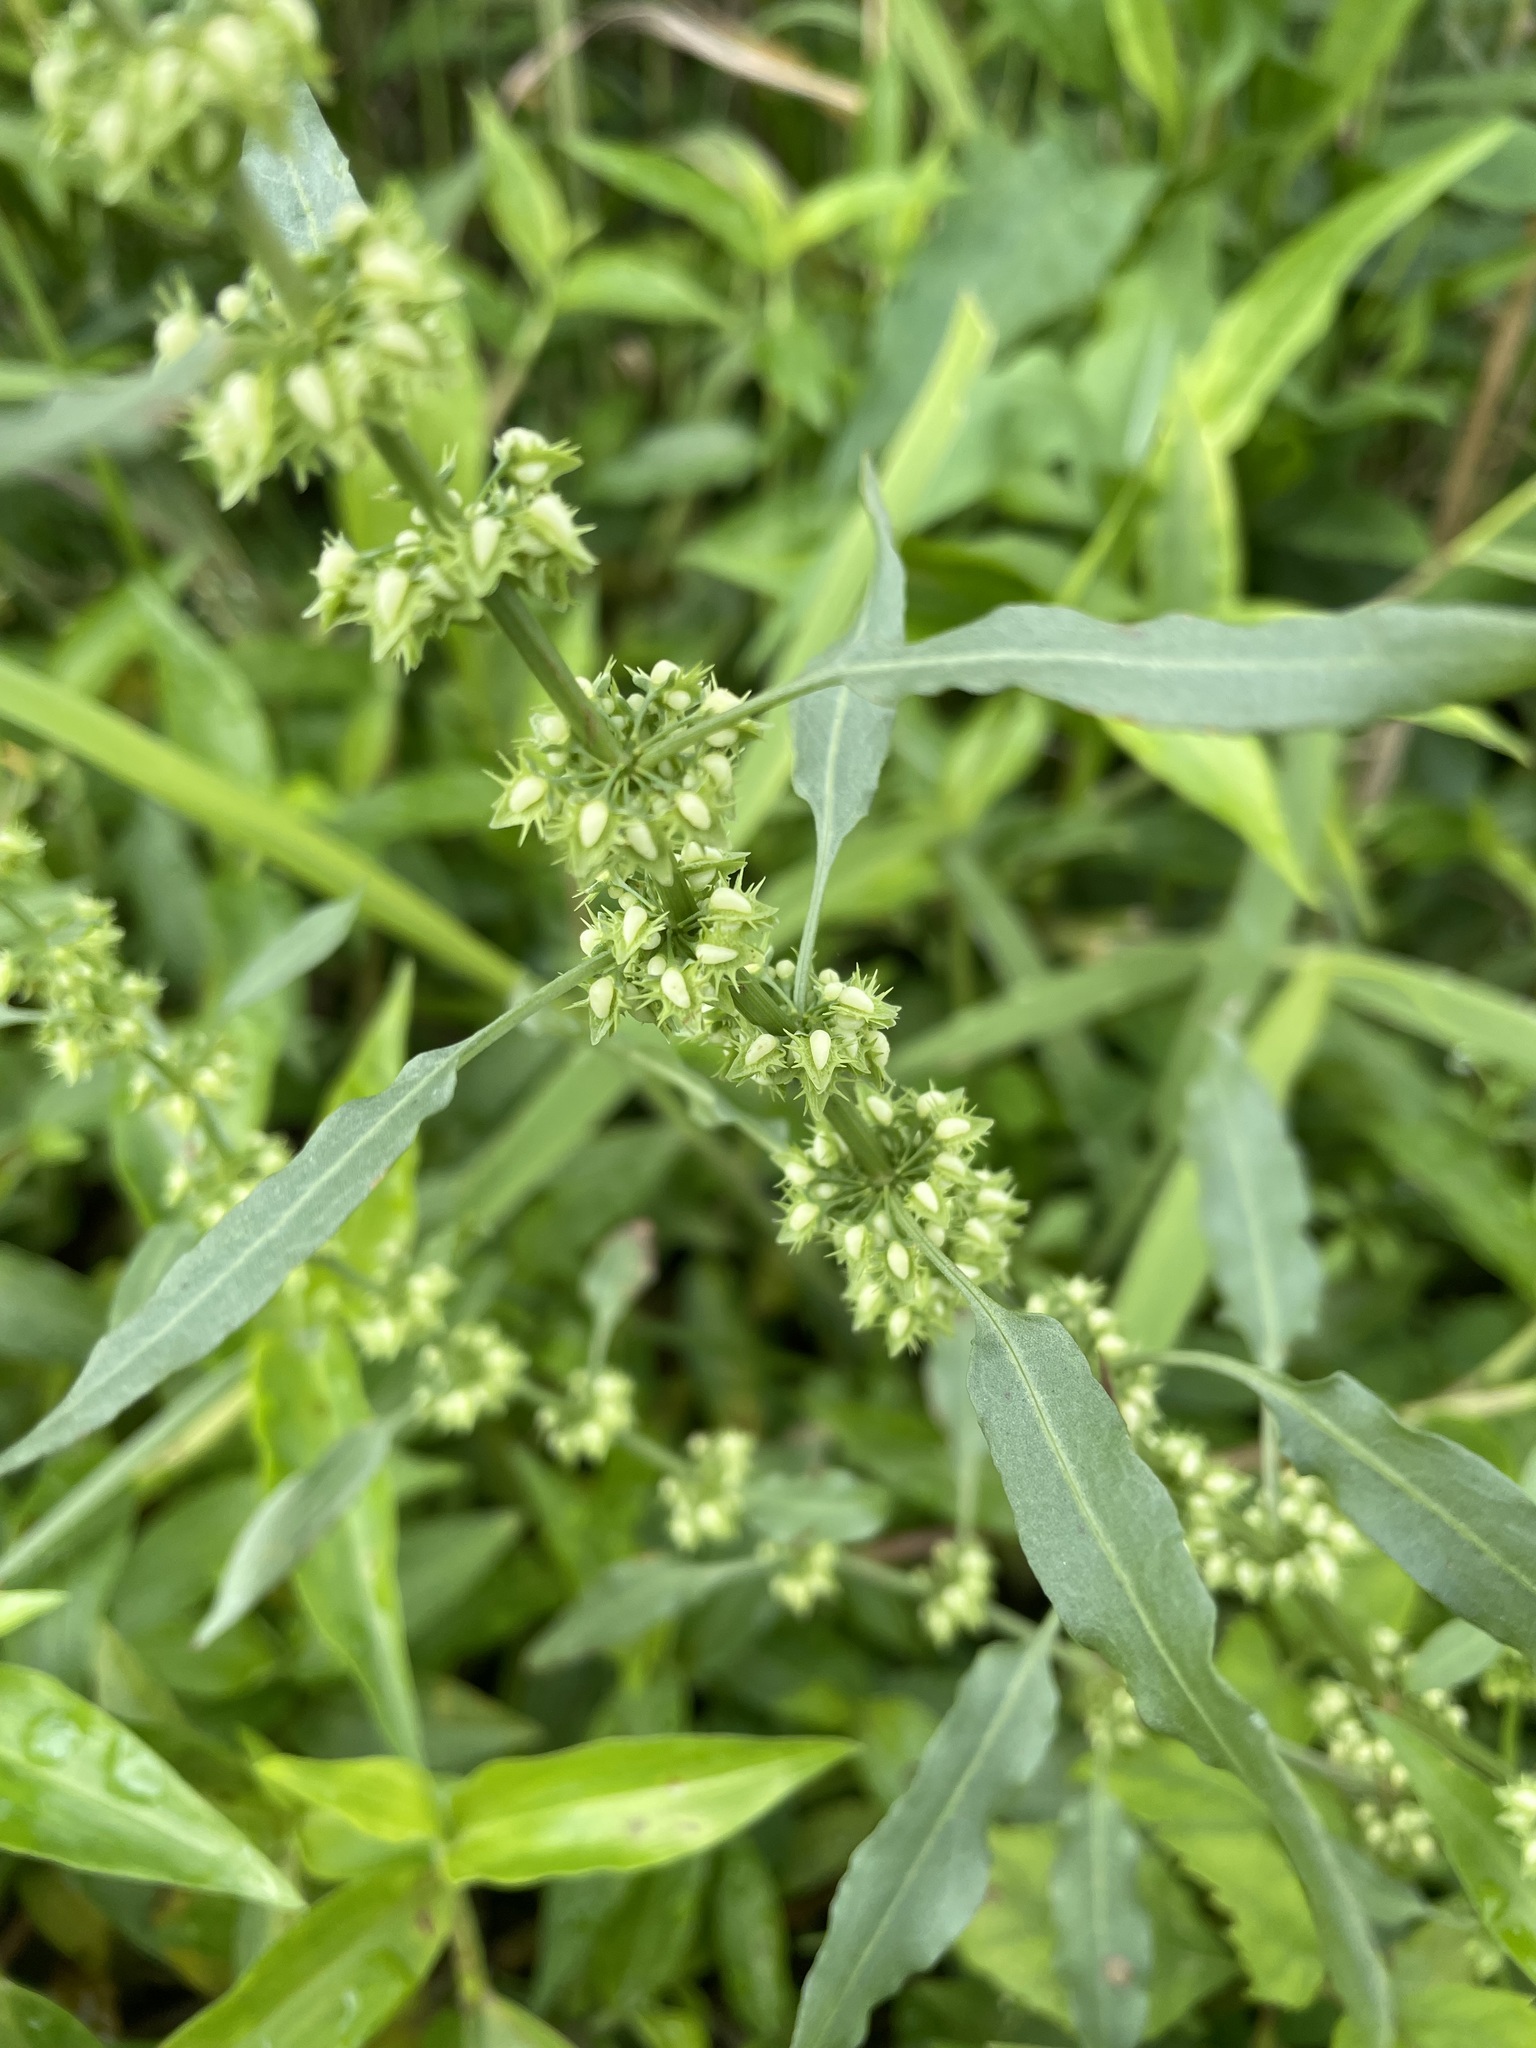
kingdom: Plantae
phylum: Tracheophyta
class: Magnoliopsida
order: Caryophyllales
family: Polygonaceae
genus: Rumex
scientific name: Rumex dentatus
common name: Toothed dock
